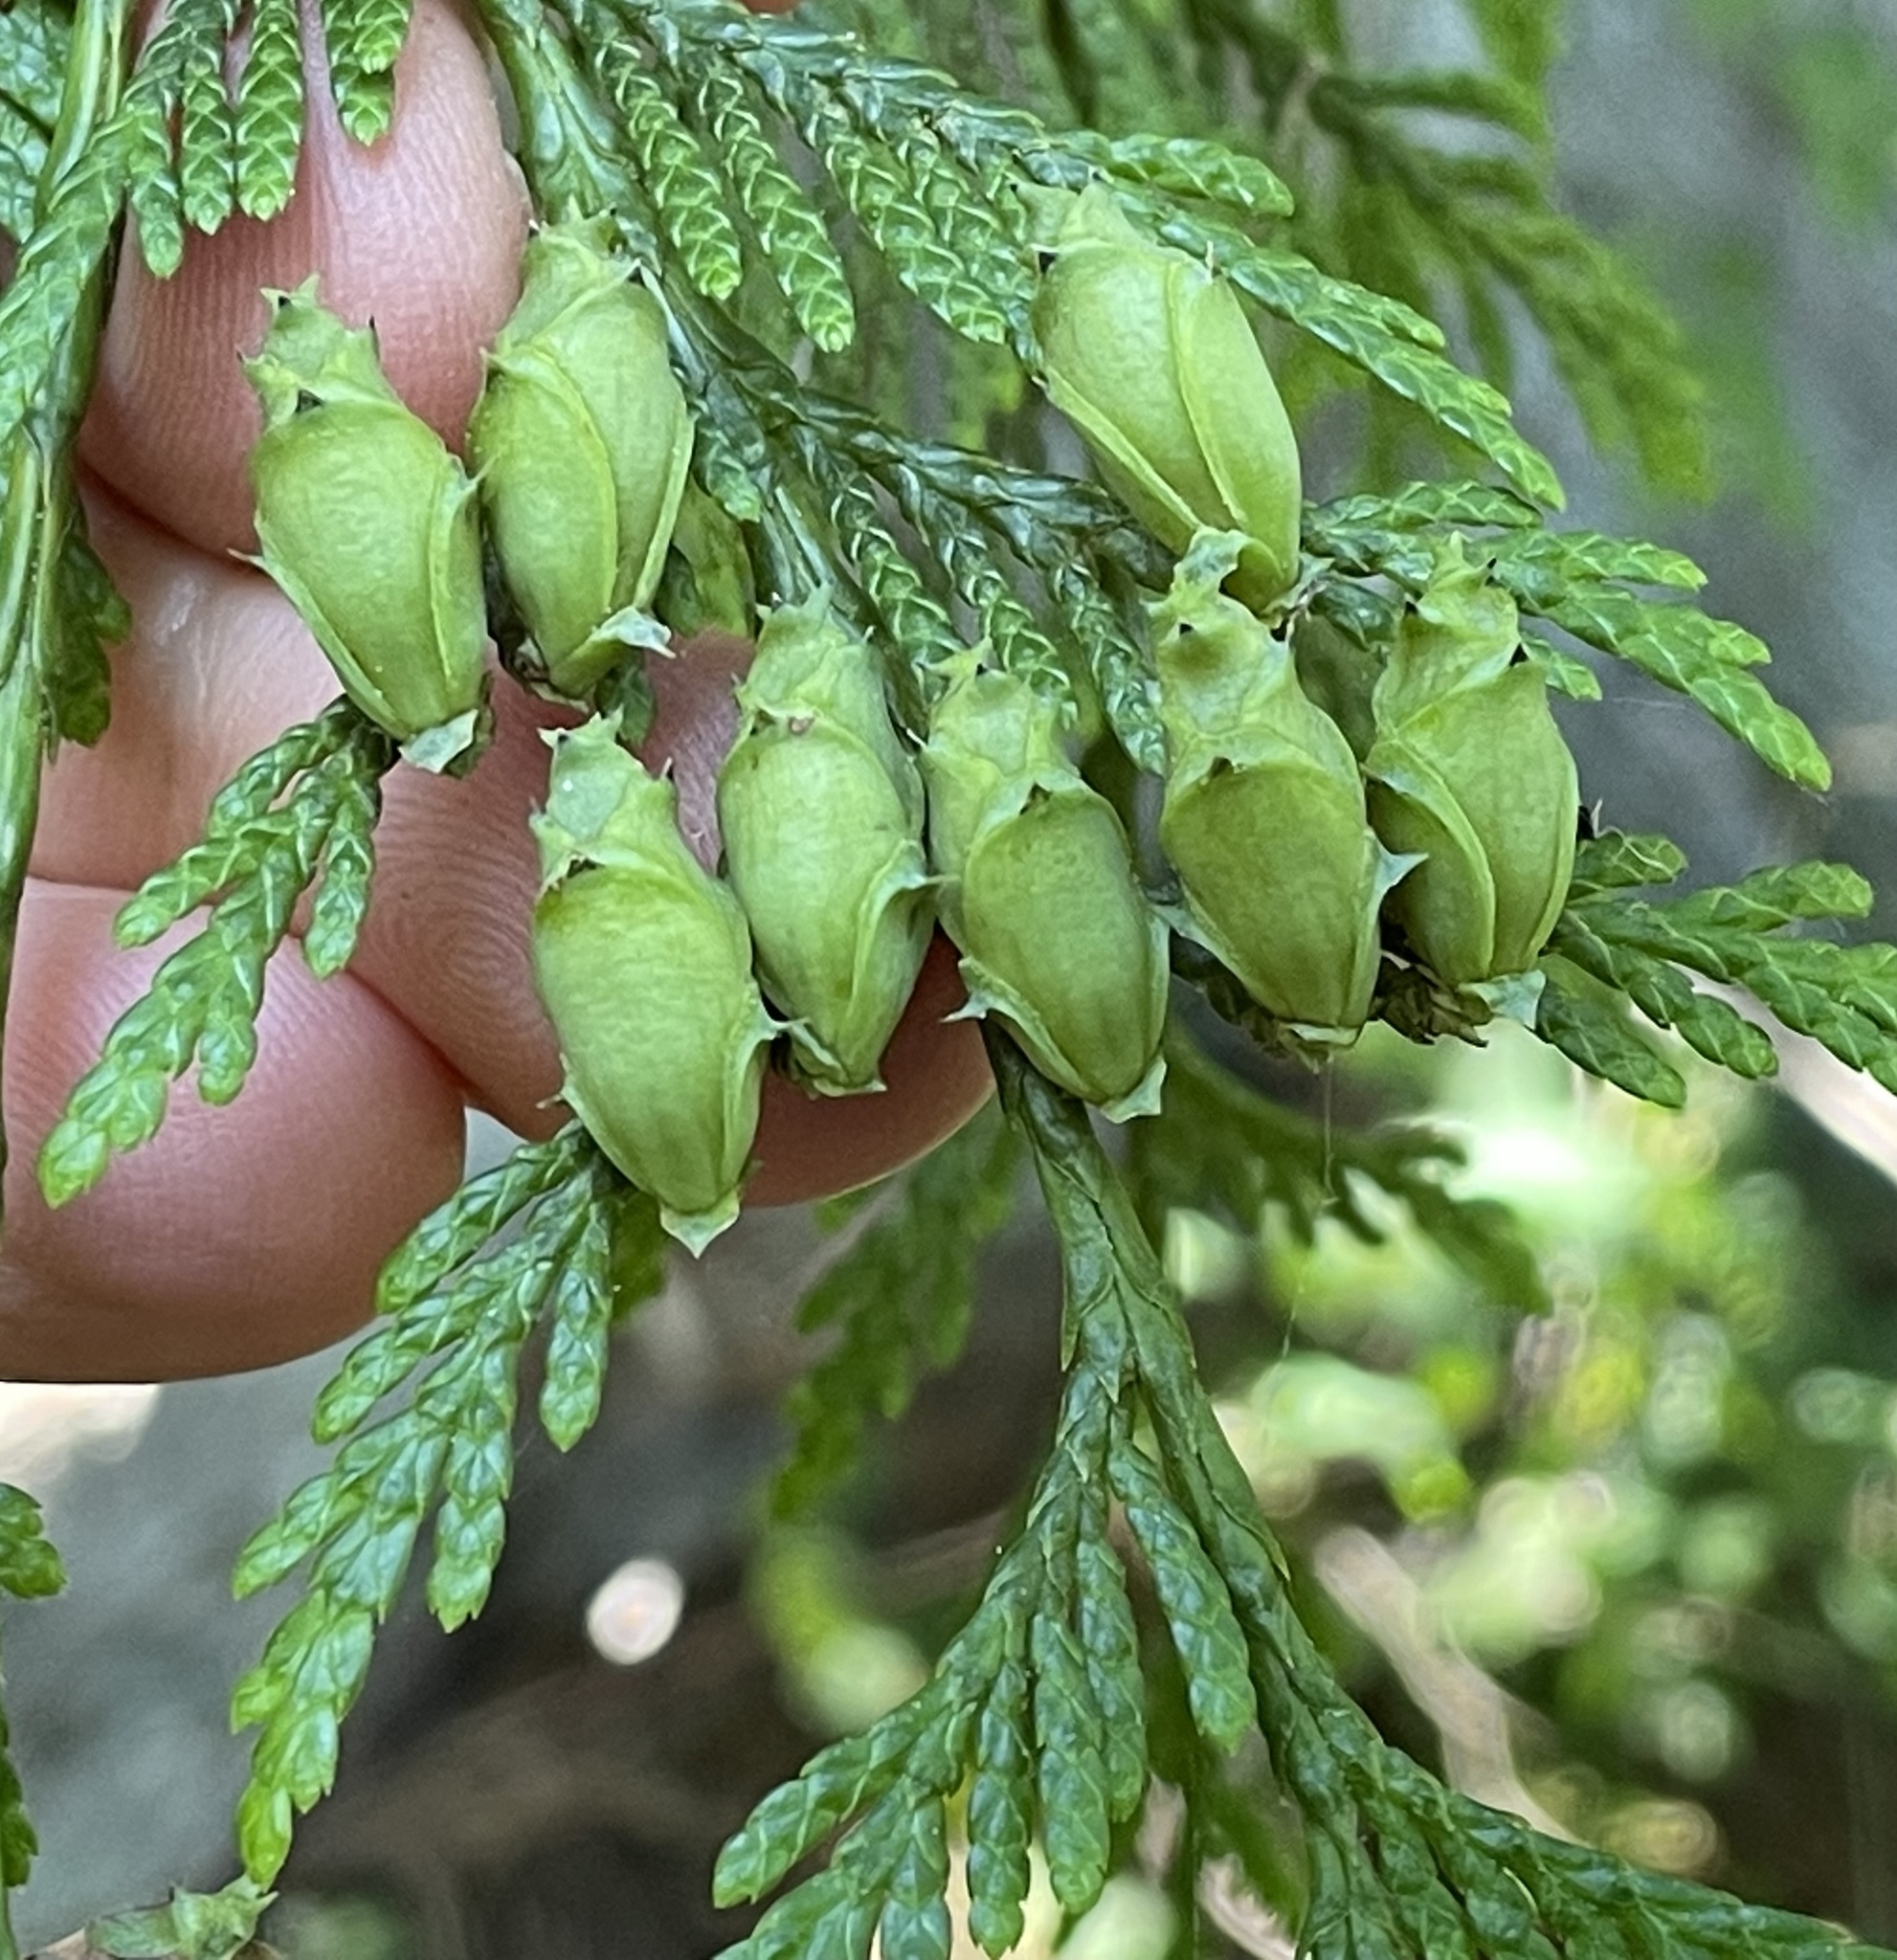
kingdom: Plantae
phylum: Tracheophyta
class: Pinopsida
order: Pinales
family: Cupressaceae
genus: Thuja
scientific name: Thuja plicata
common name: Western red-cedar
